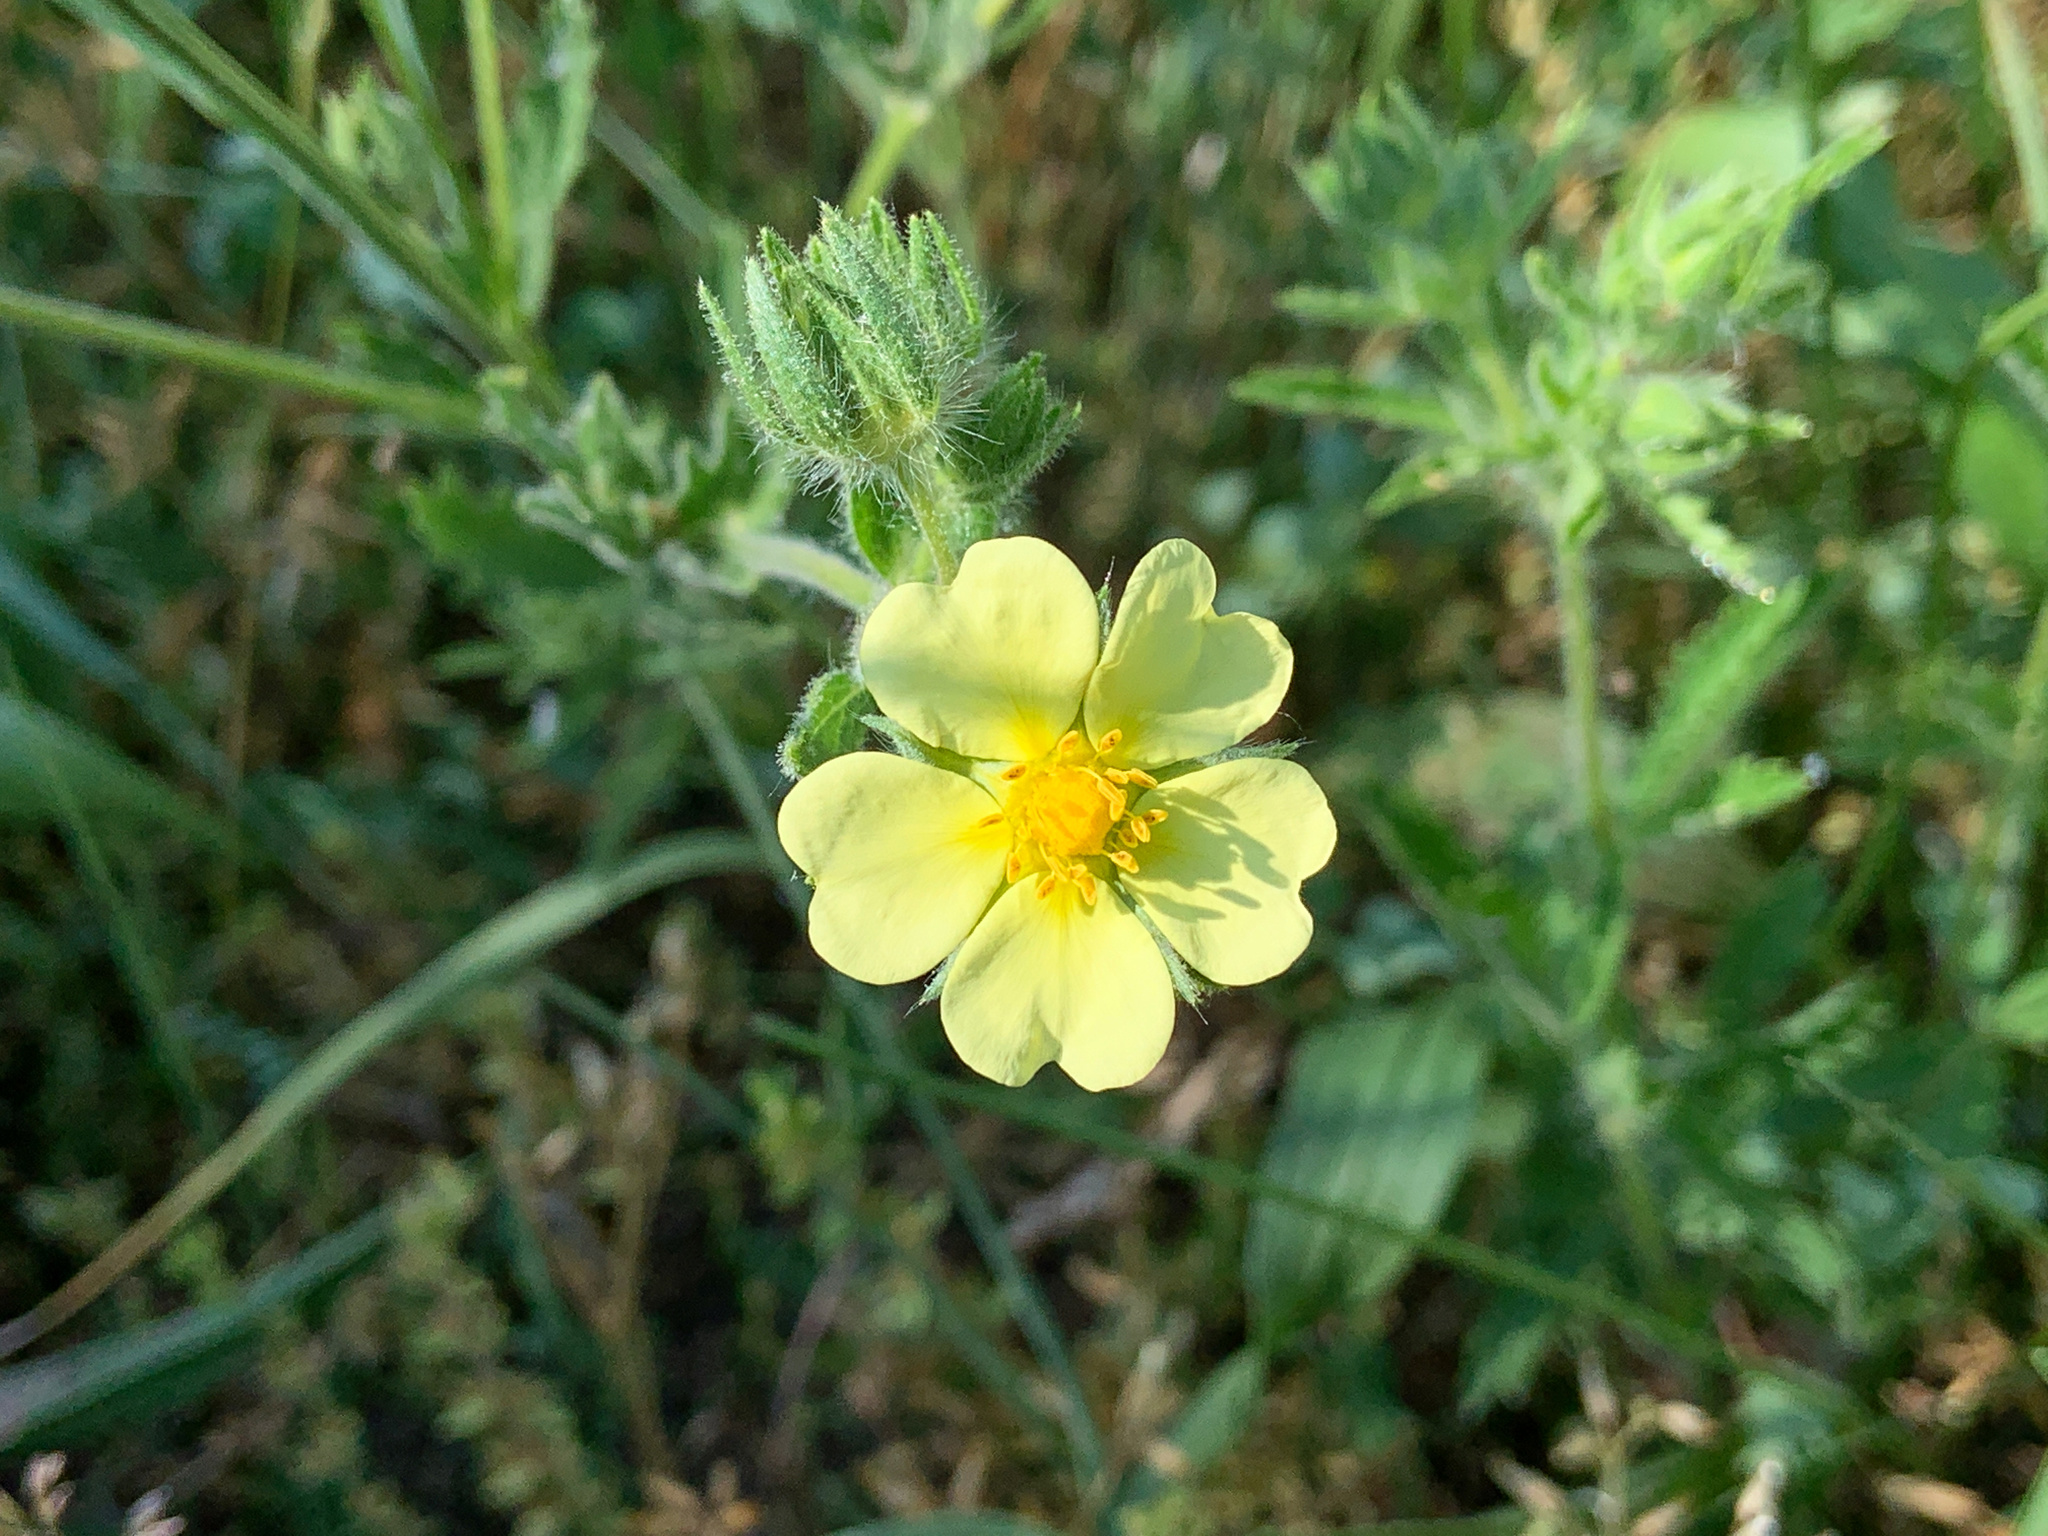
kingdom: Plantae
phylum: Tracheophyta
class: Magnoliopsida
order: Rosales
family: Rosaceae
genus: Potentilla
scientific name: Potentilla recta
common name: Sulphur cinquefoil
